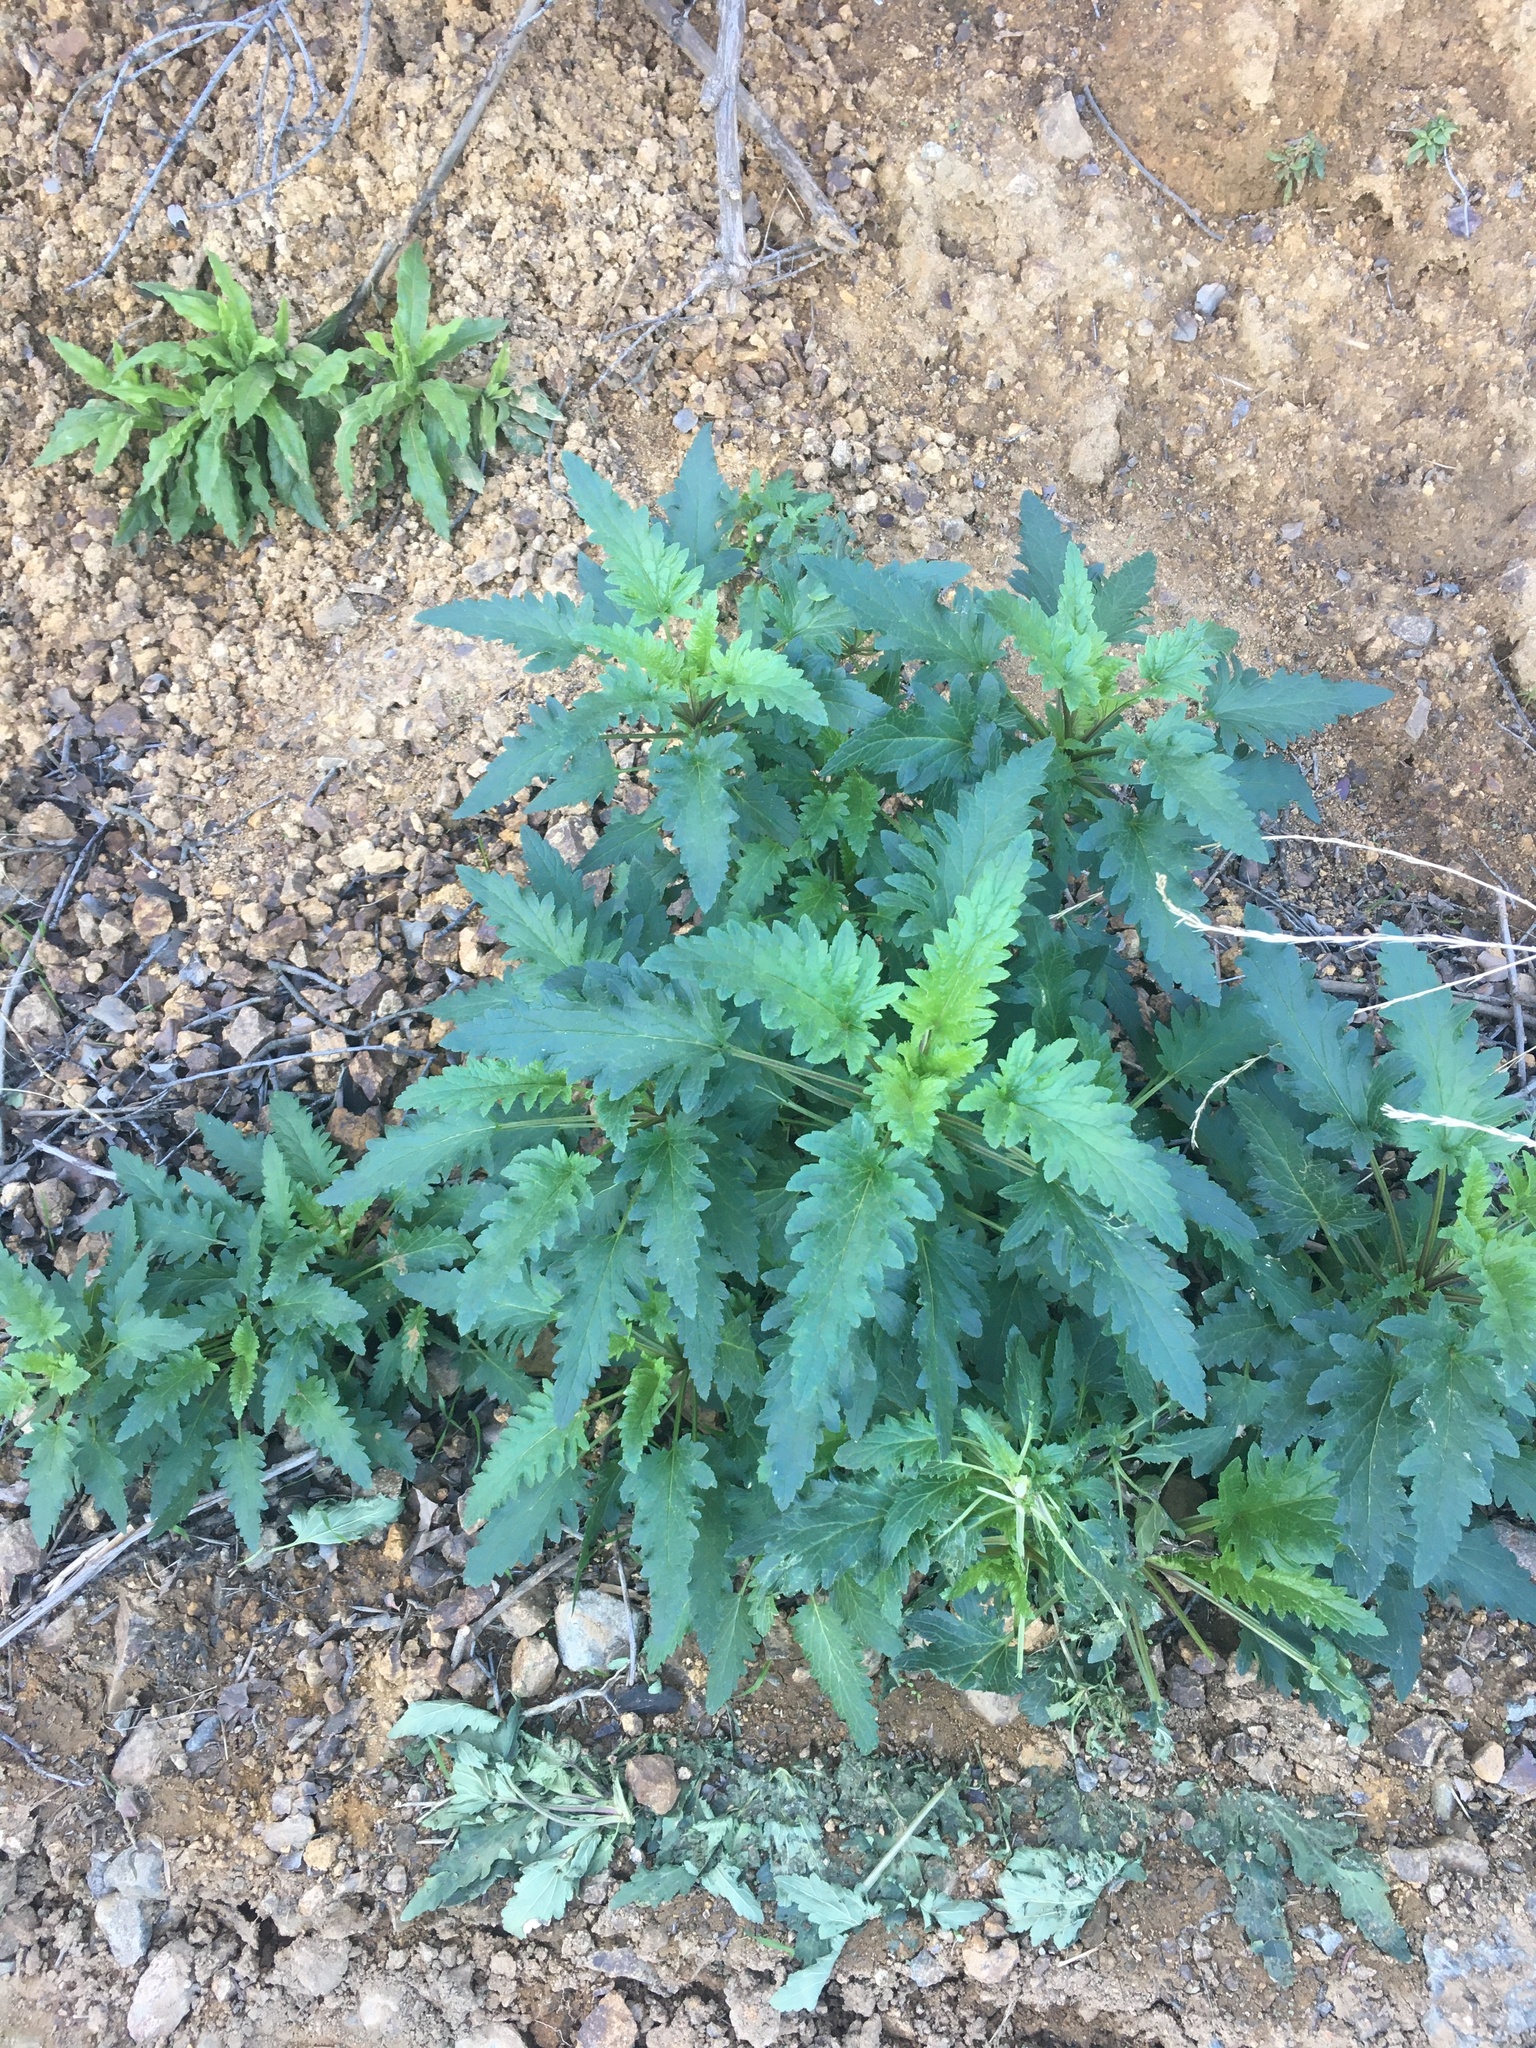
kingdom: Plantae
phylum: Tracheophyta
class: Magnoliopsida
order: Lamiales
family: Scrophulariaceae
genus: Scrophularia
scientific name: Scrophularia californica
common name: California figwort
